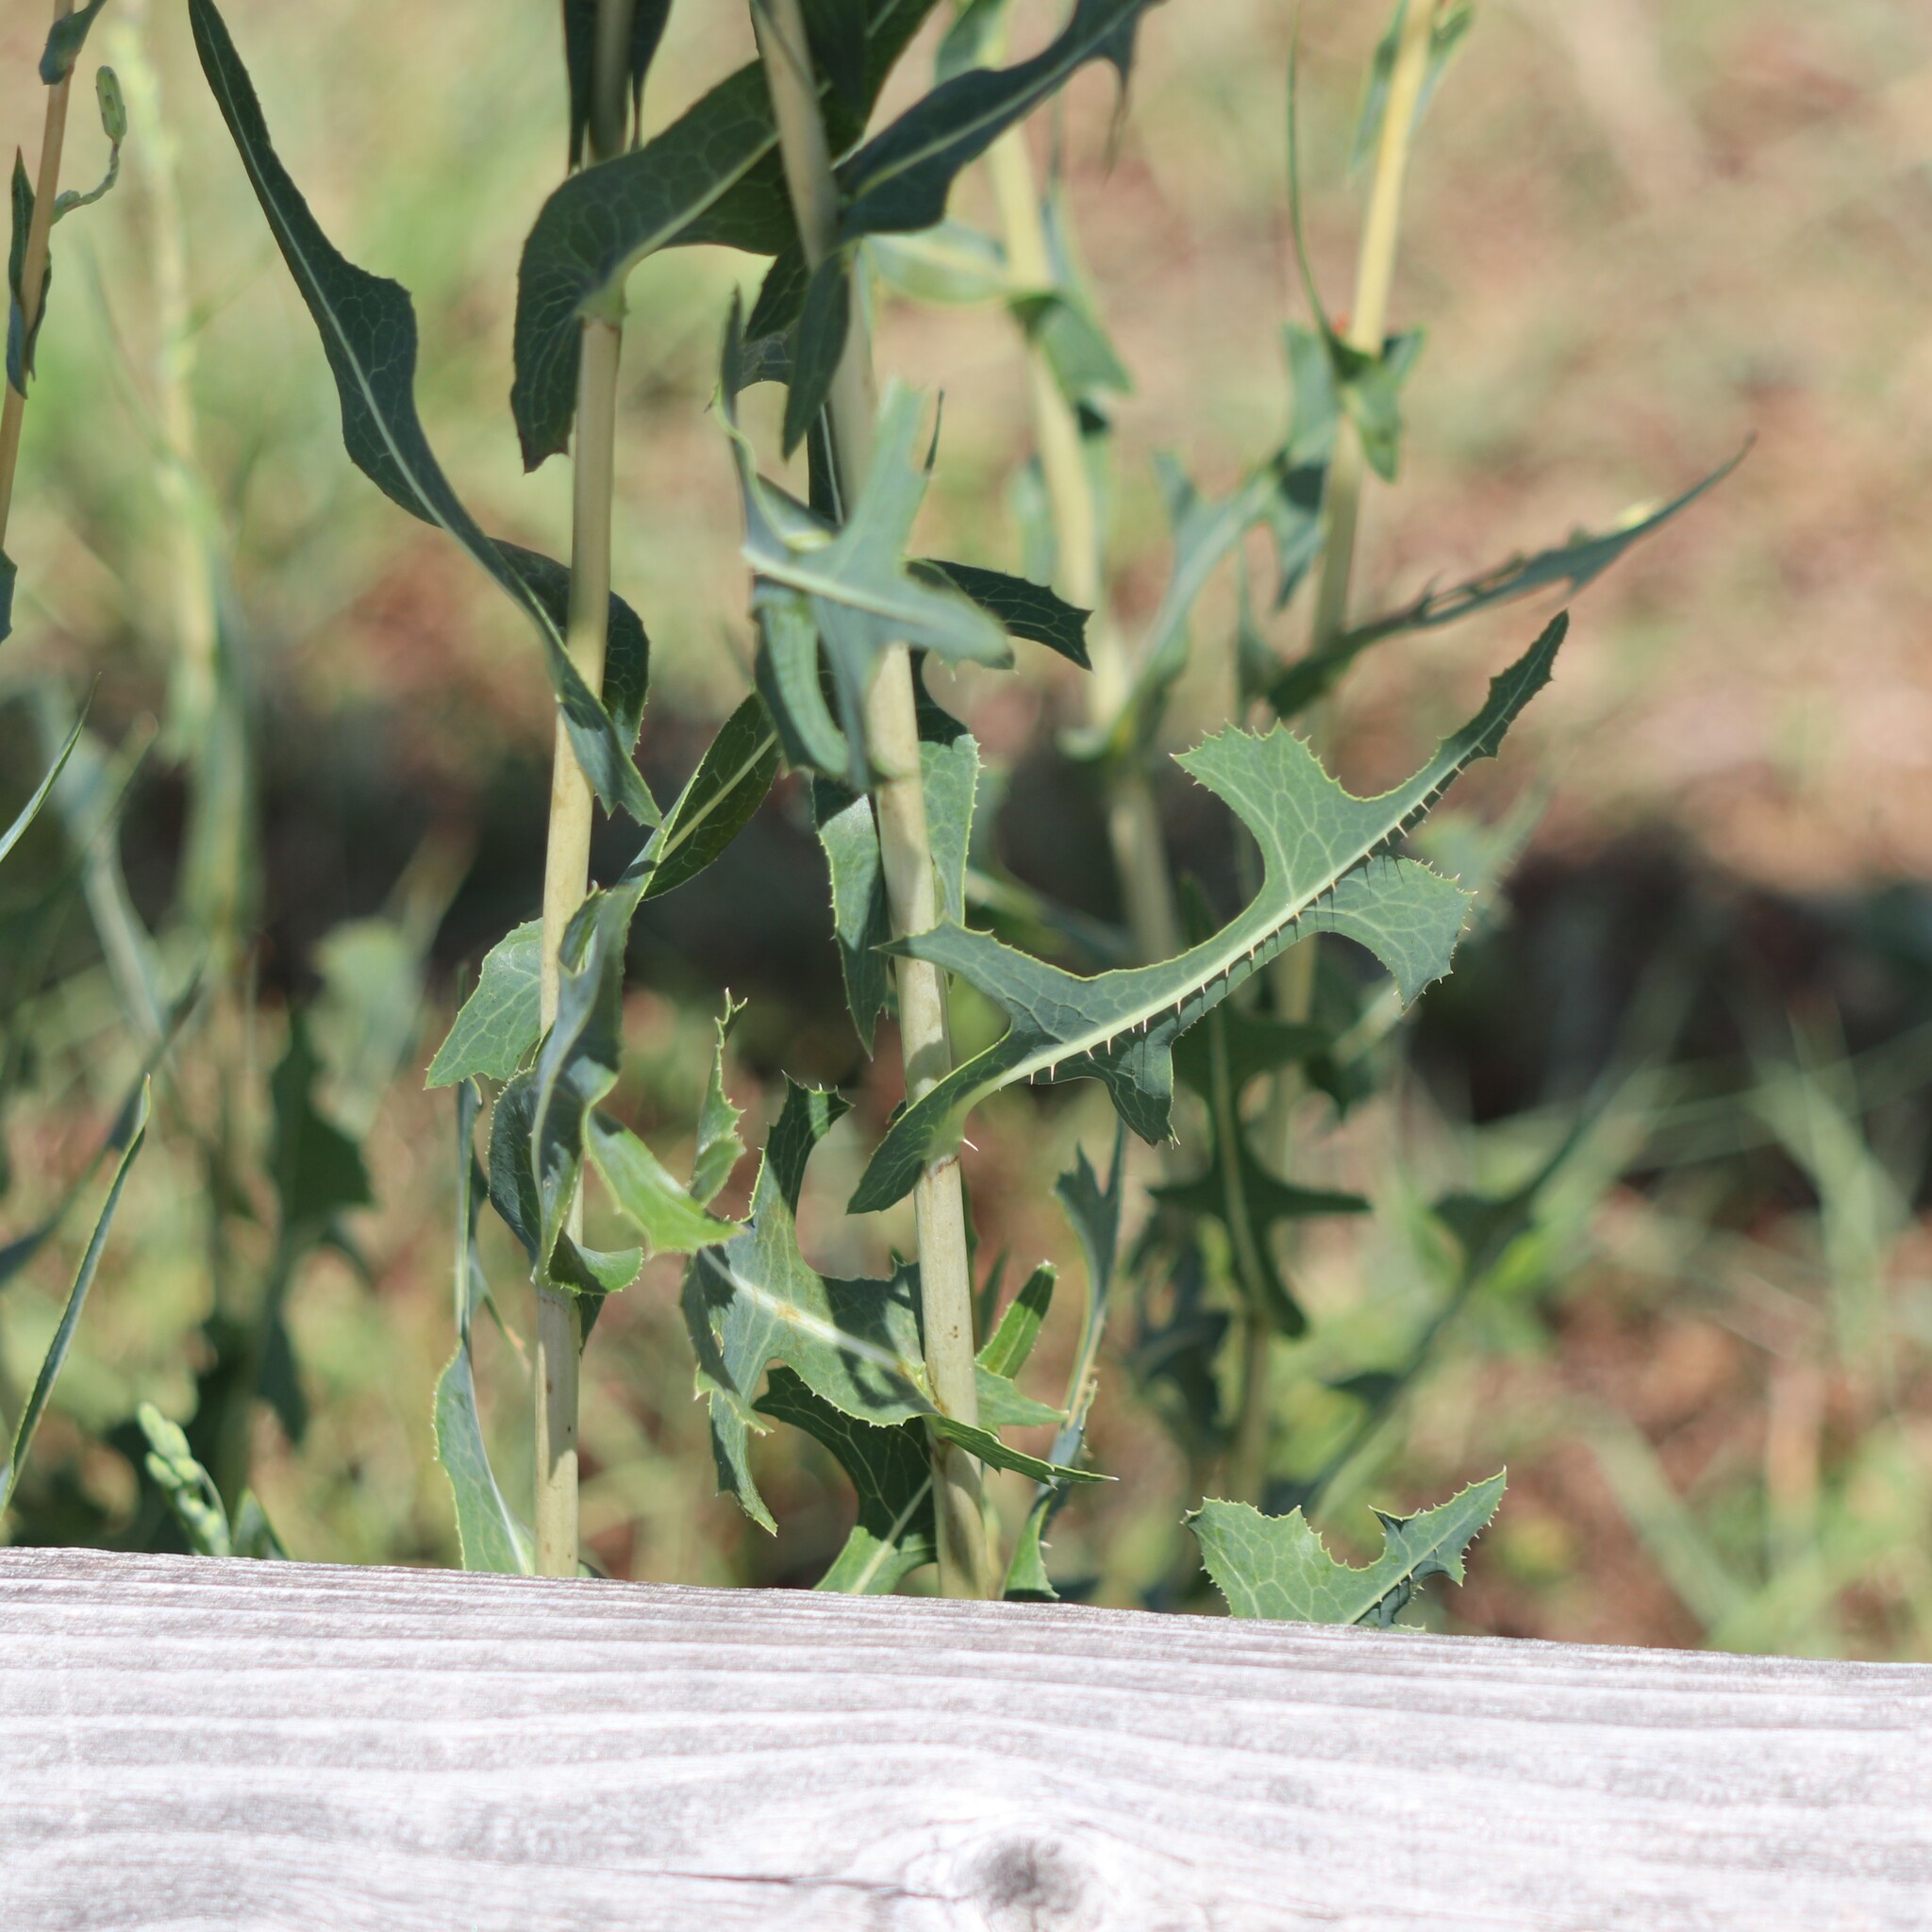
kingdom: Plantae
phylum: Tracheophyta
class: Magnoliopsida
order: Asterales
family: Asteraceae
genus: Lactuca
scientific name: Lactuca serriola
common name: Prickly lettuce
